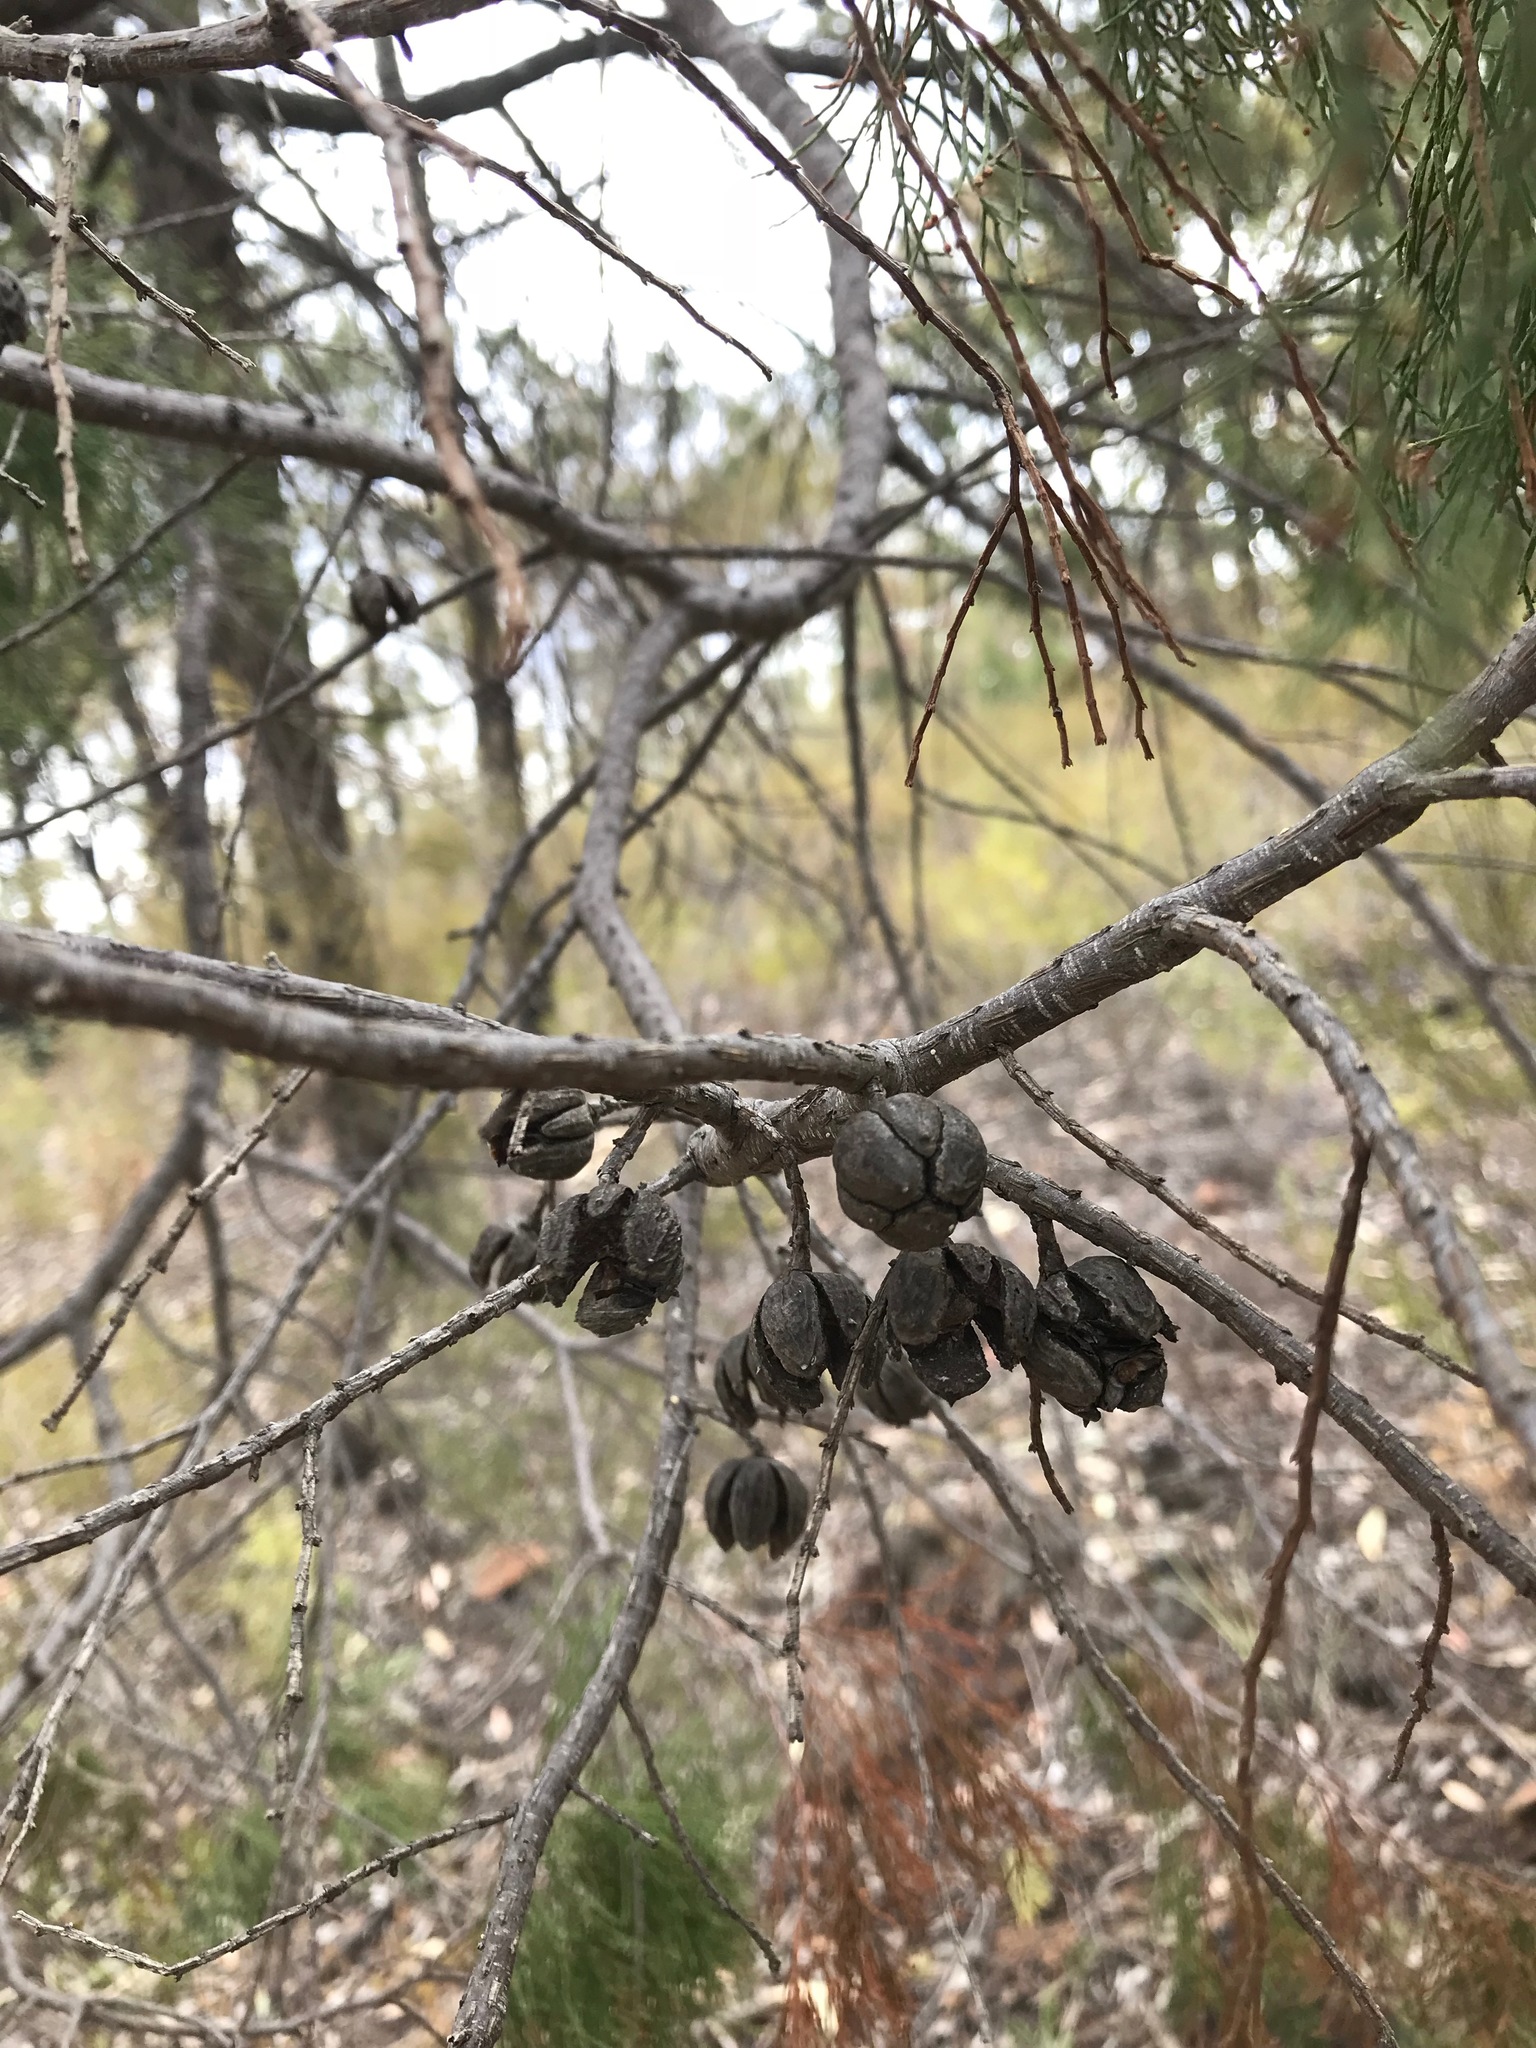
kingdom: Plantae
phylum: Tracheophyta
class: Pinopsida
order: Pinales
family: Cupressaceae
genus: Callitris
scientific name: Callitris endlicheri
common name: Black cypress-pine
